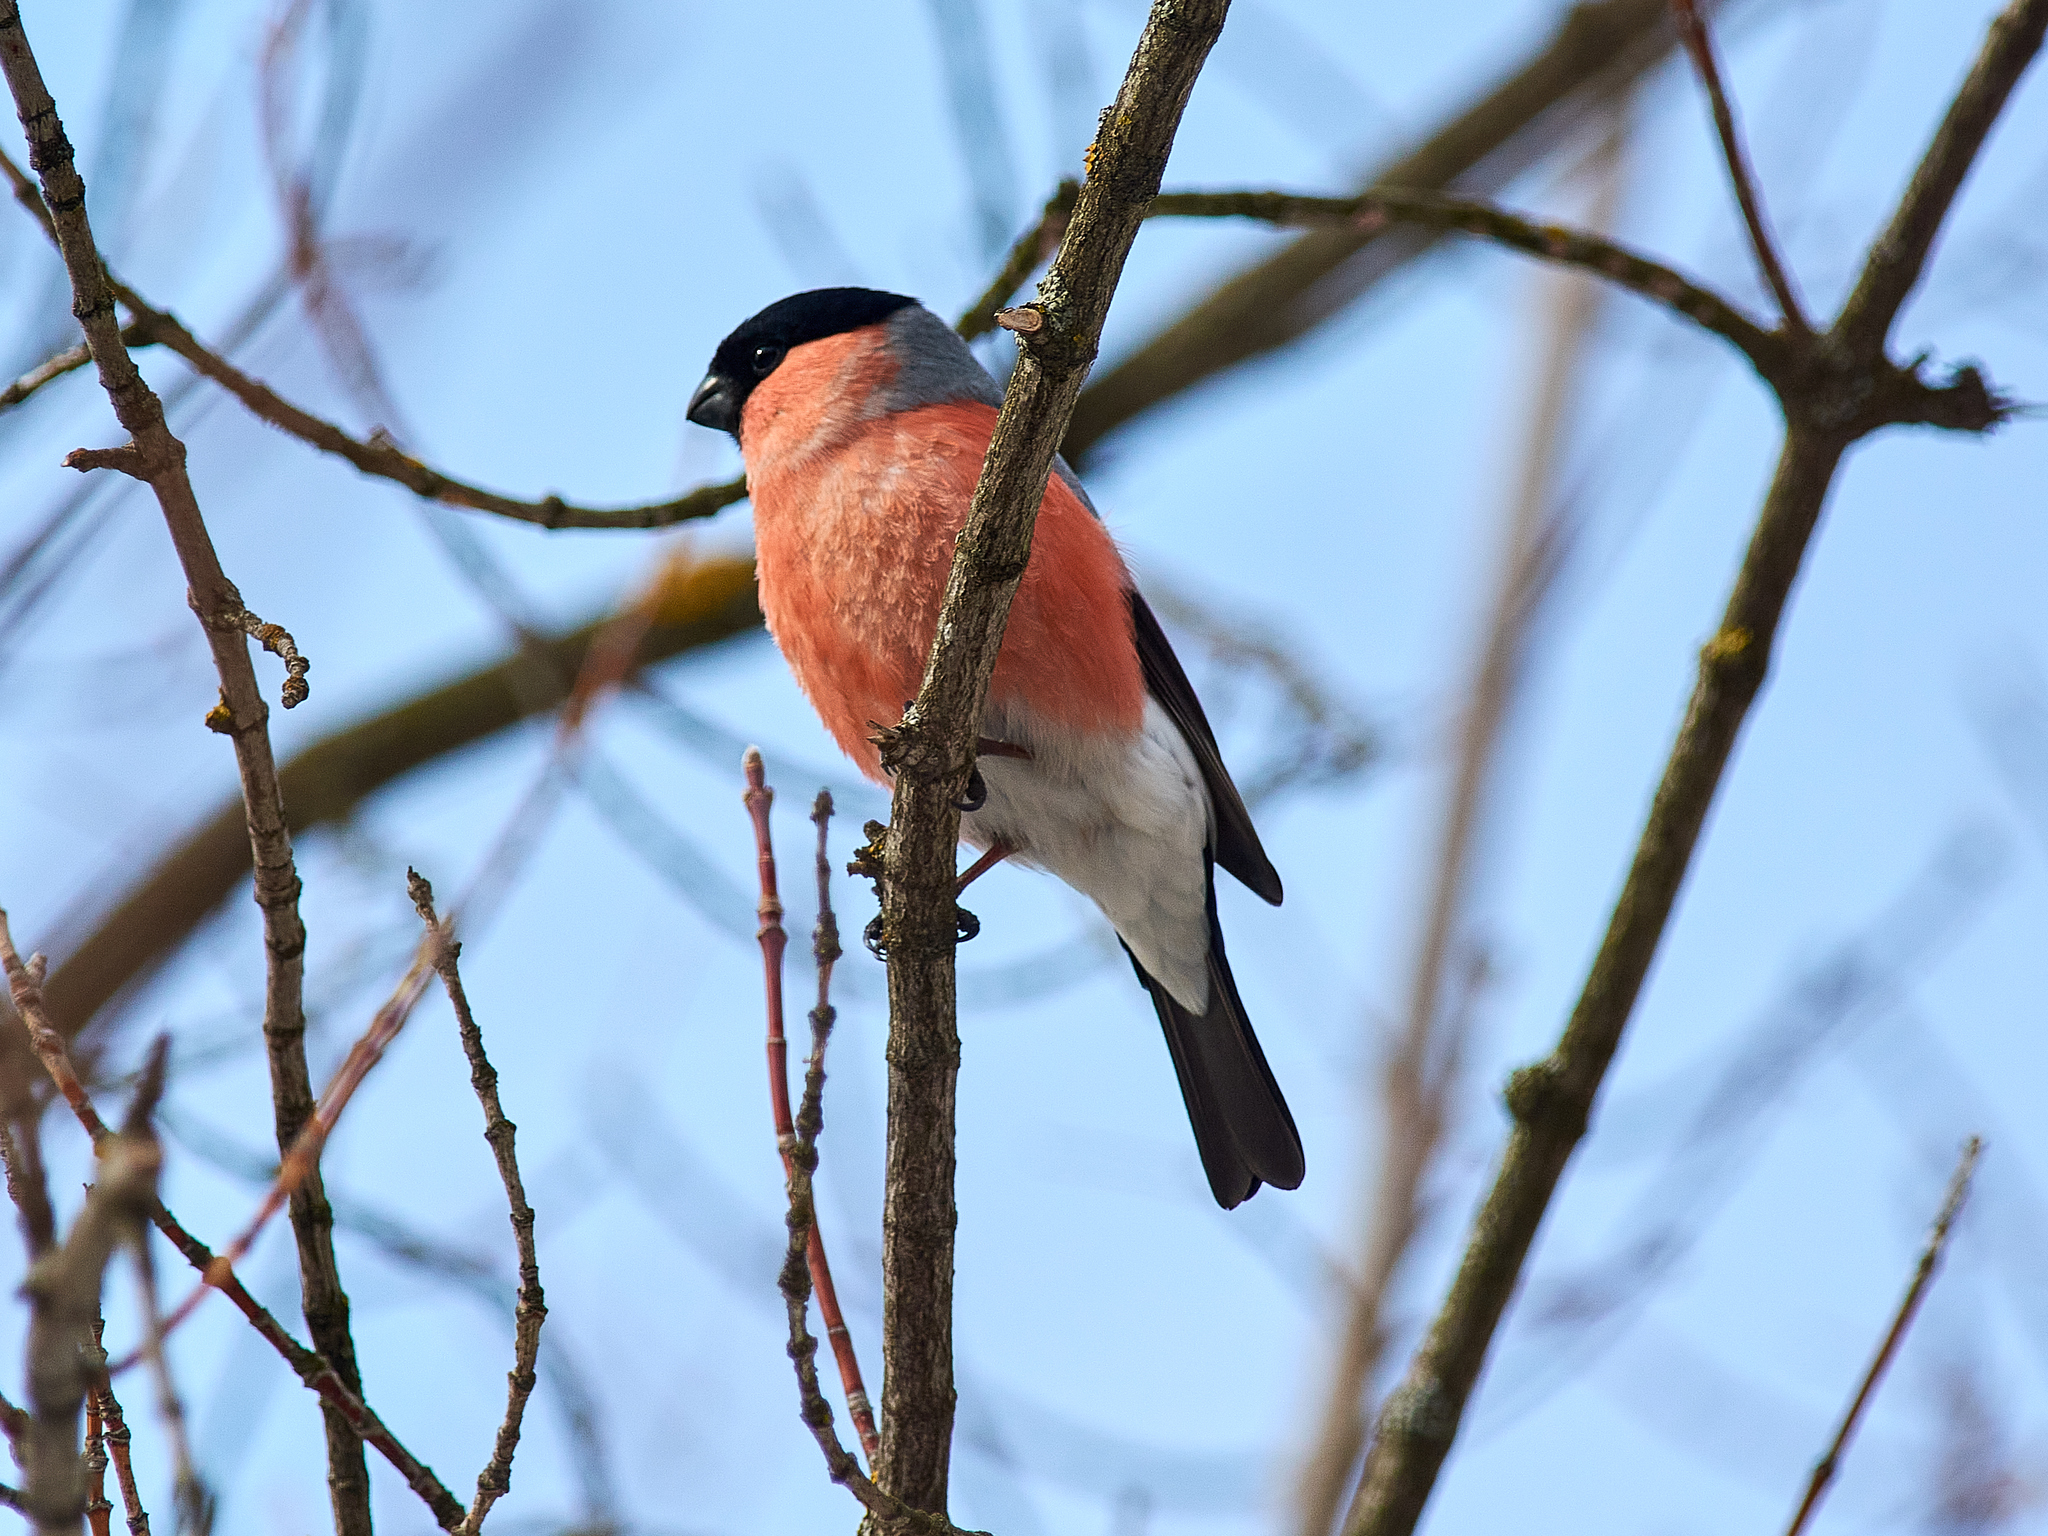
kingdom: Animalia
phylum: Chordata
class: Aves
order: Passeriformes
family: Fringillidae
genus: Pyrrhula
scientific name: Pyrrhula pyrrhula
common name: Eurasian bullfinch
